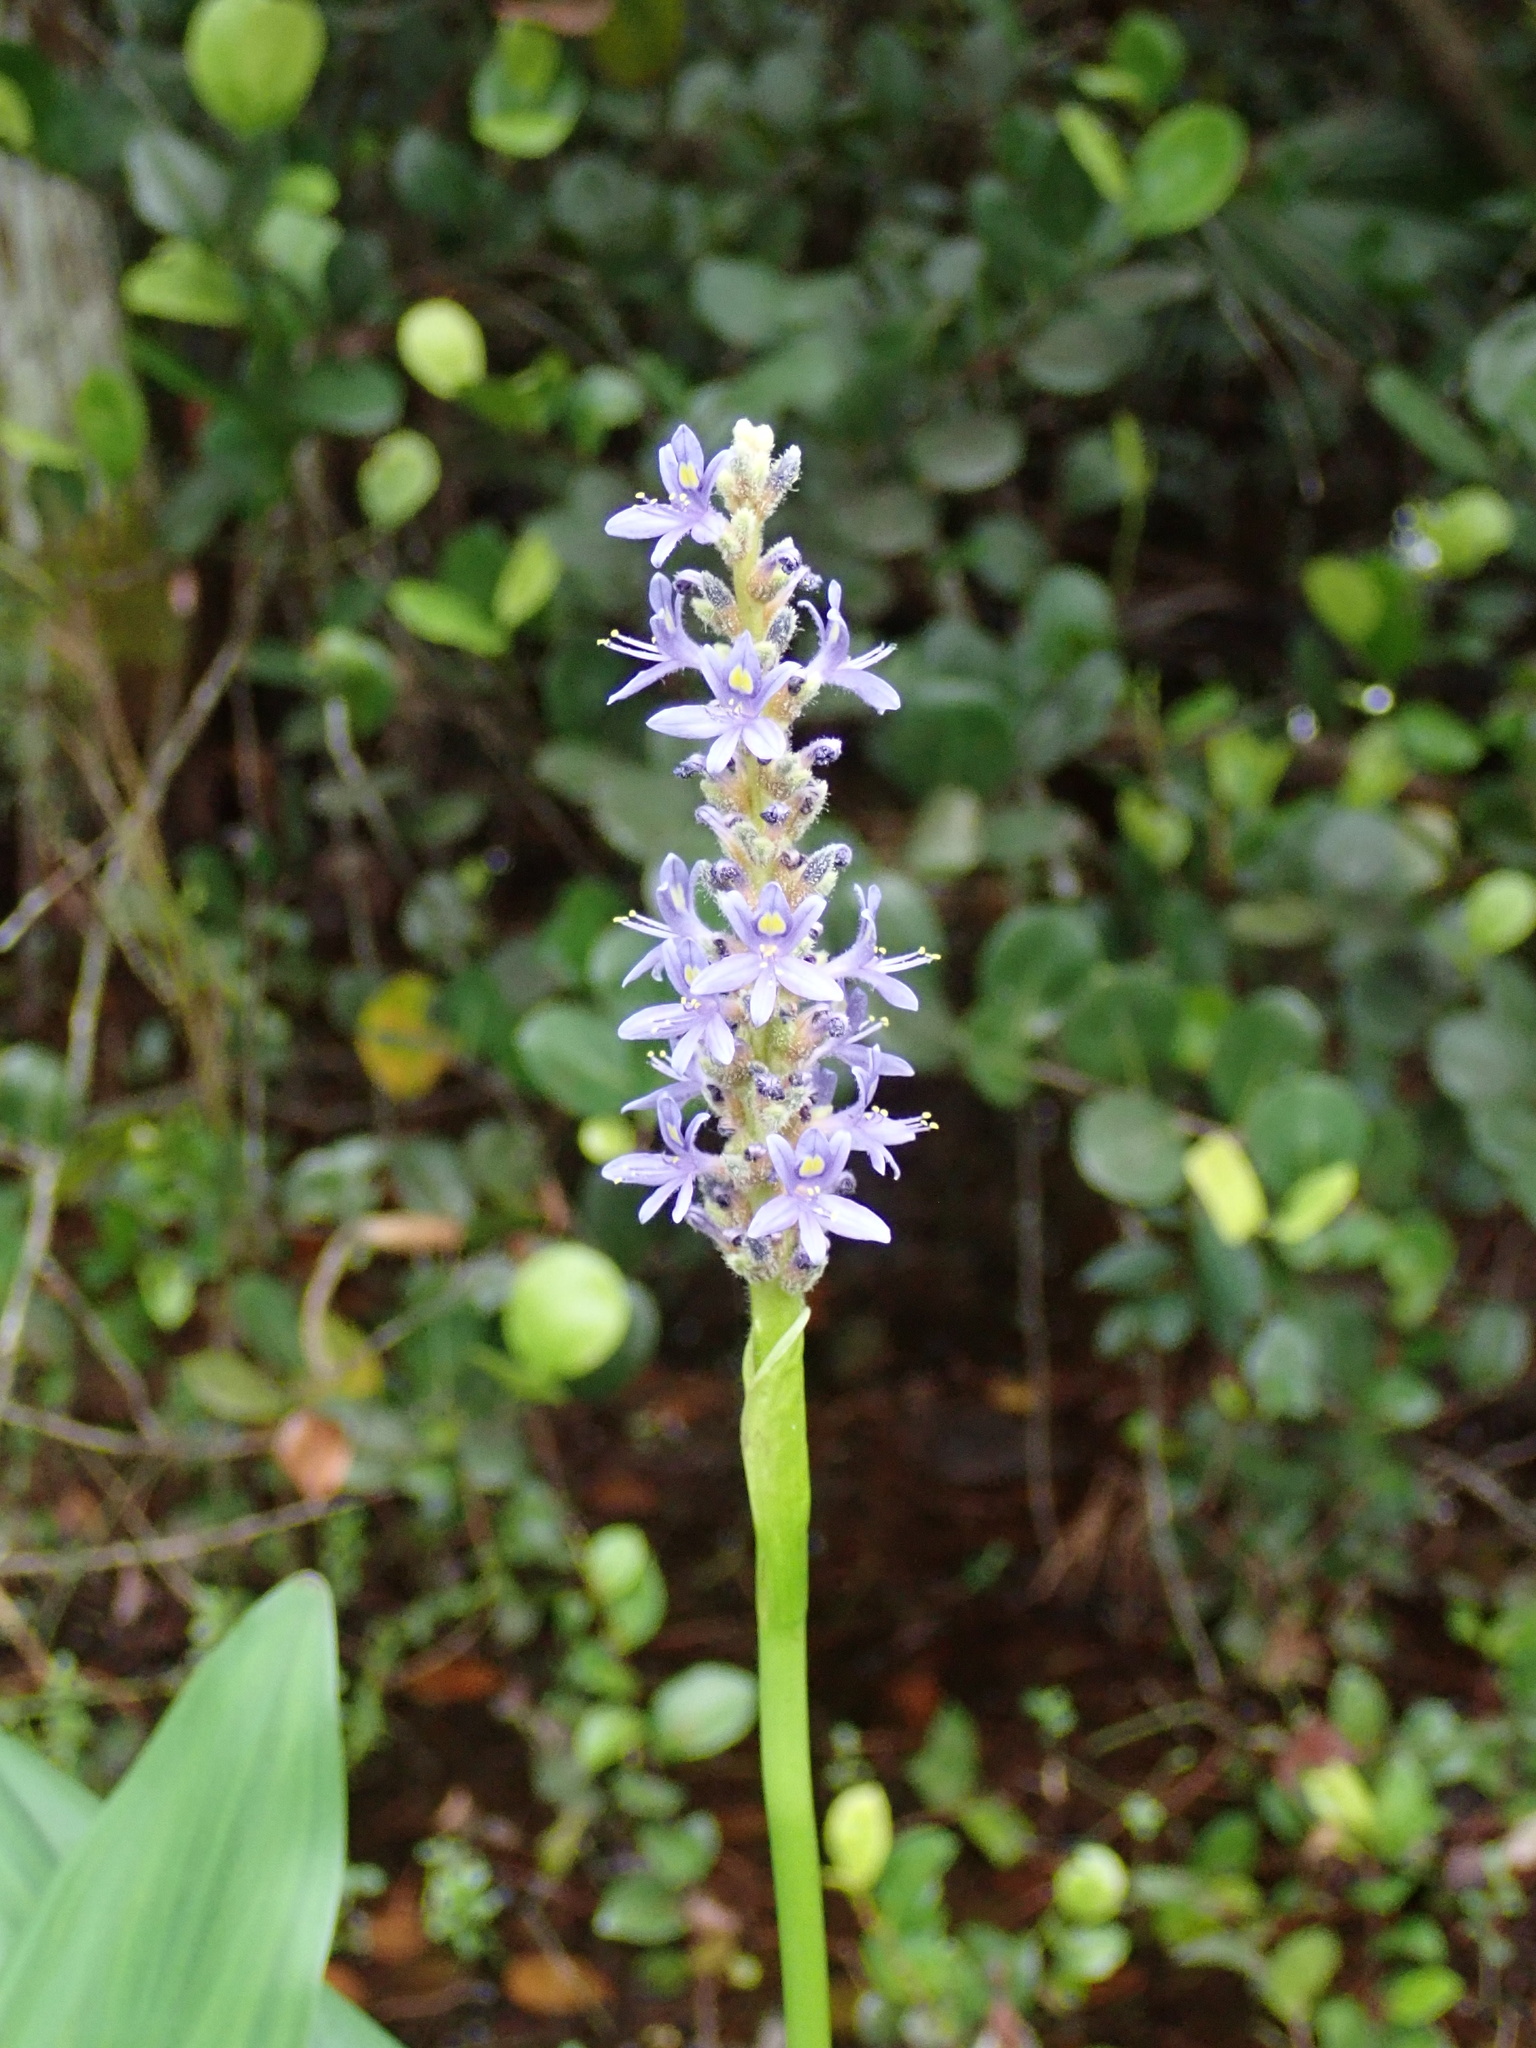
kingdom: Plantae
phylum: Tracheophyta
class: Liliopsida
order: Commelinales
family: Pontederiaceae
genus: Pontederia
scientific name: Pontederia cordata
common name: Pickerelweed
